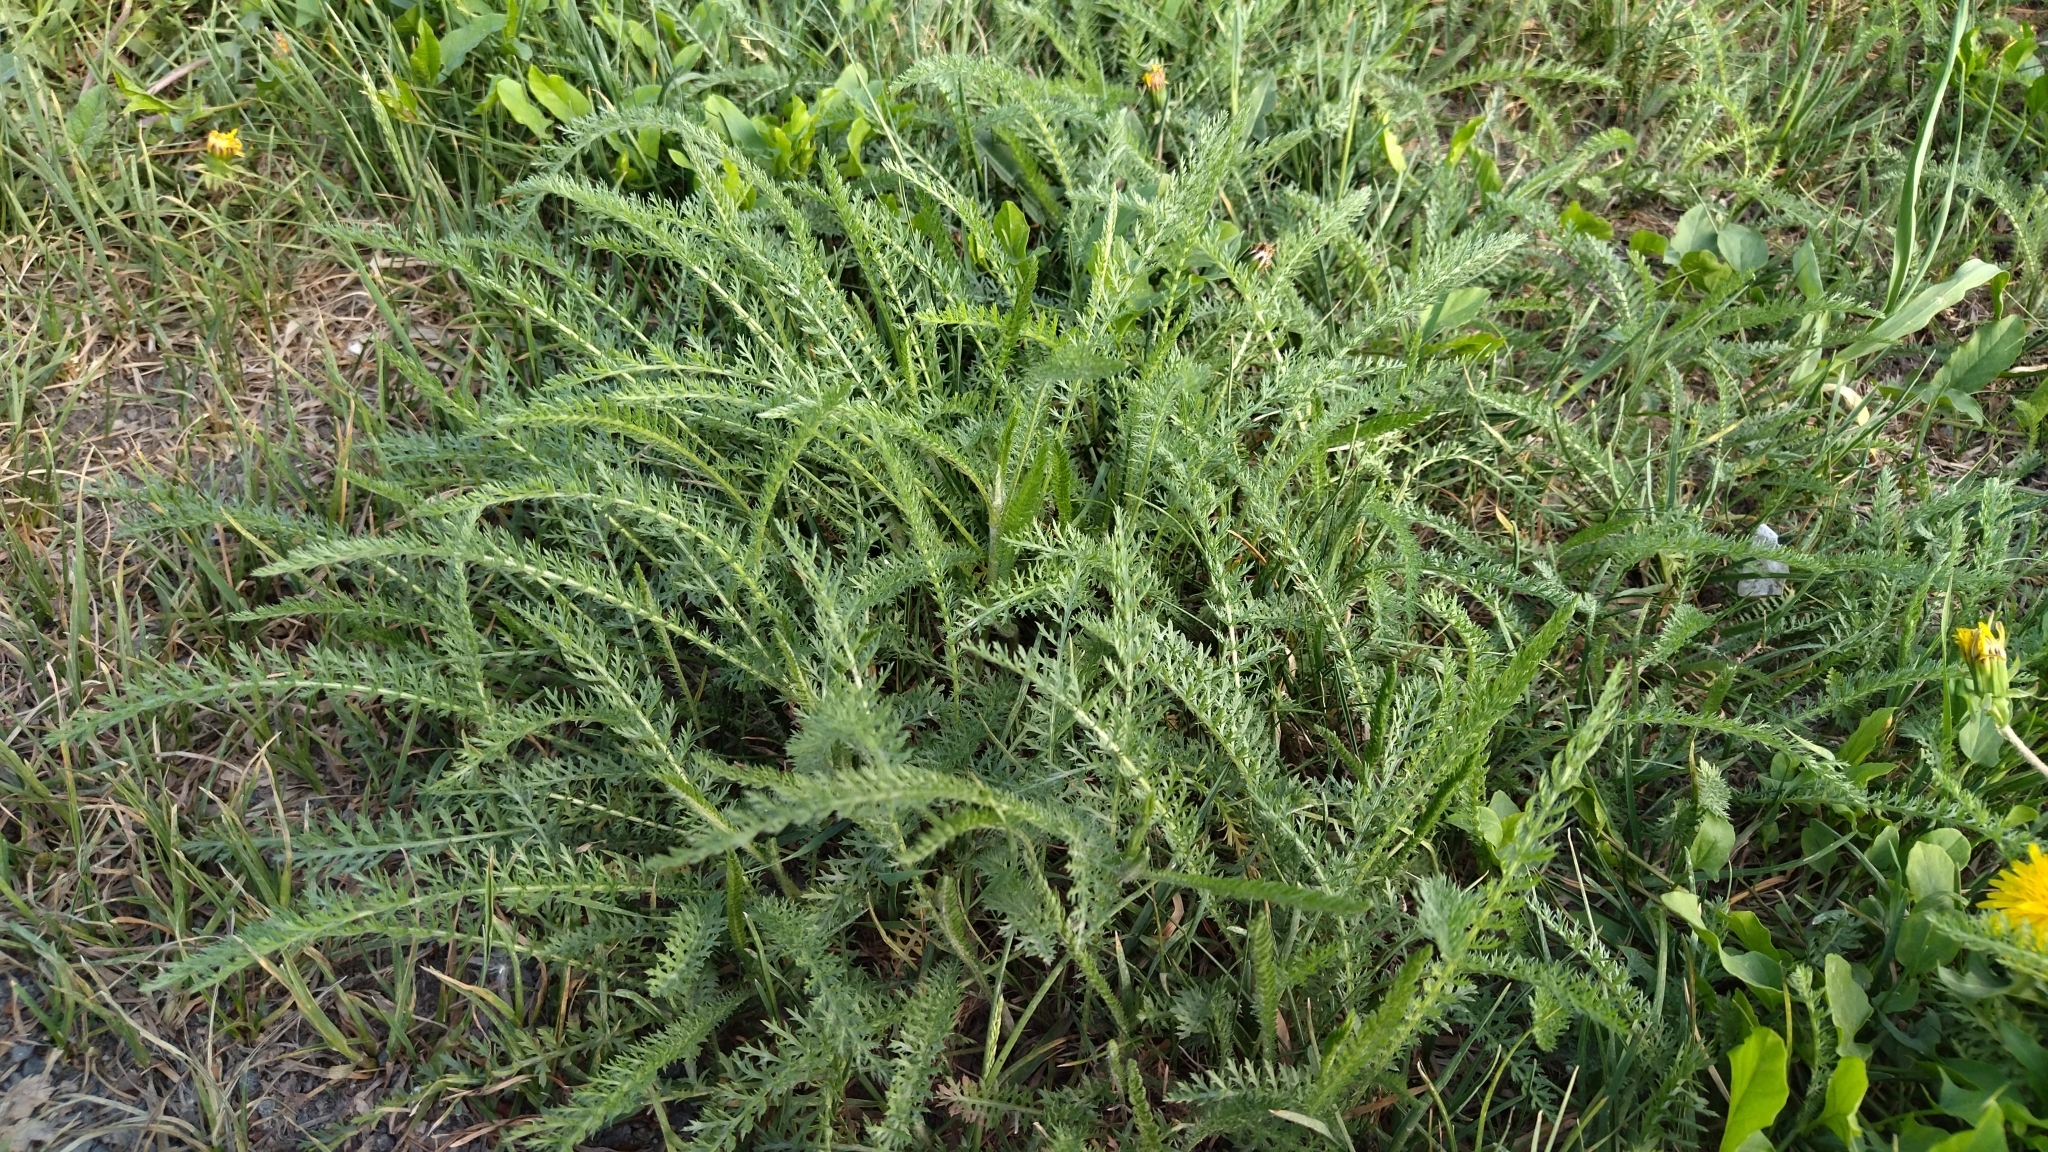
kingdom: Plantae
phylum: Tracheophyta
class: Magnoliopsida
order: Asterales
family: Asteraceae
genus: Achillea
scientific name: Achillea millefolium
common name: Yarrow
